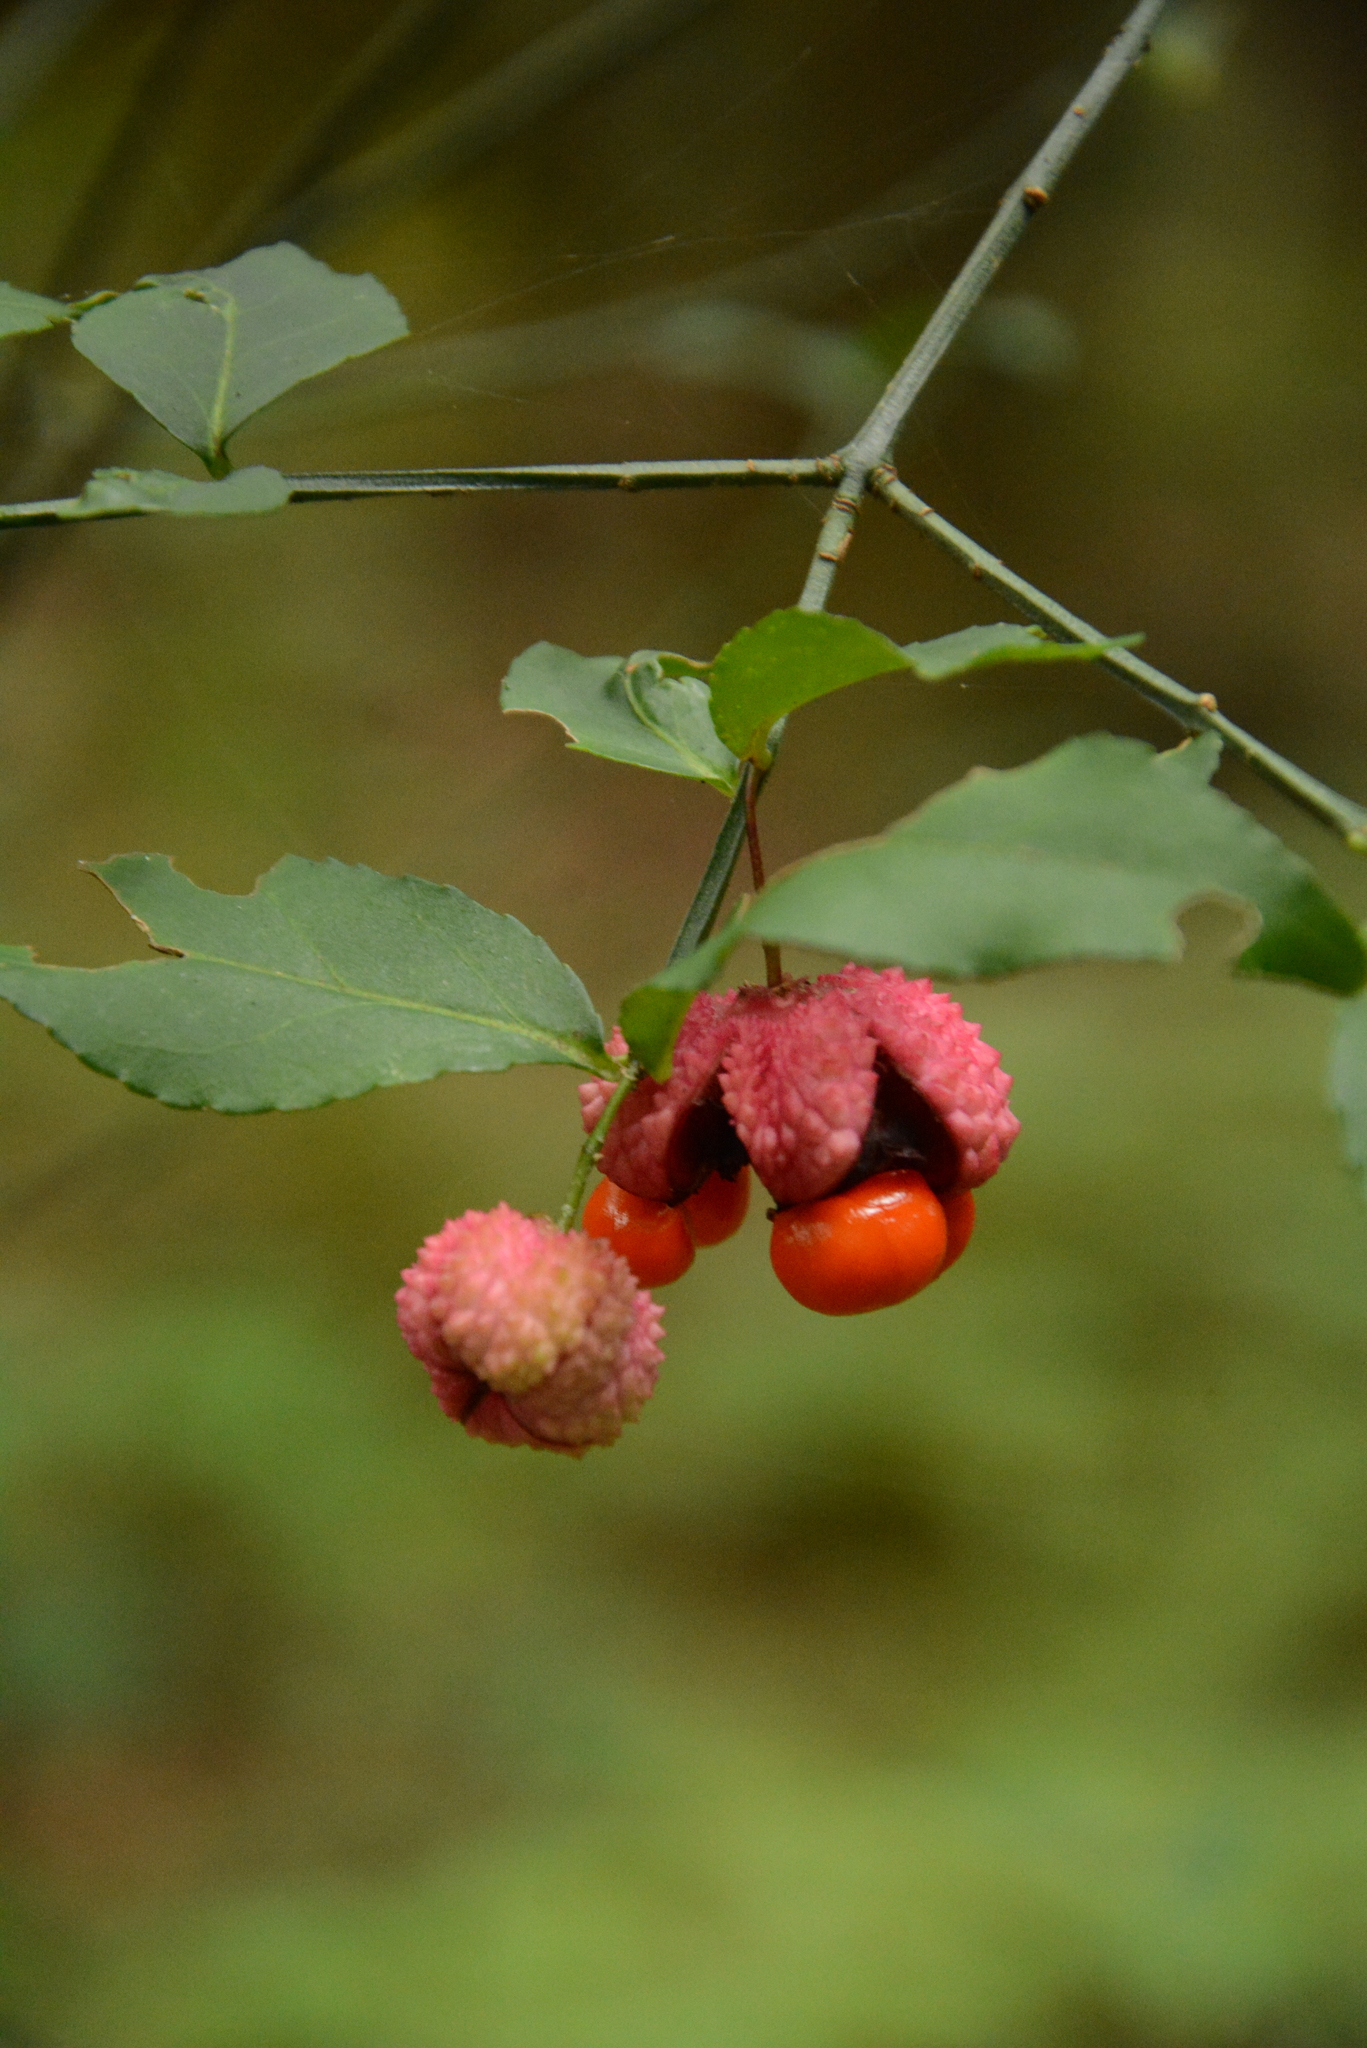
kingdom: Plantae
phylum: Tracheophyta
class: Magnoliopsida
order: Celastrales
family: Celastraceae
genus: Euonymus
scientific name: Euonymus americanus
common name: Bursting-heart
